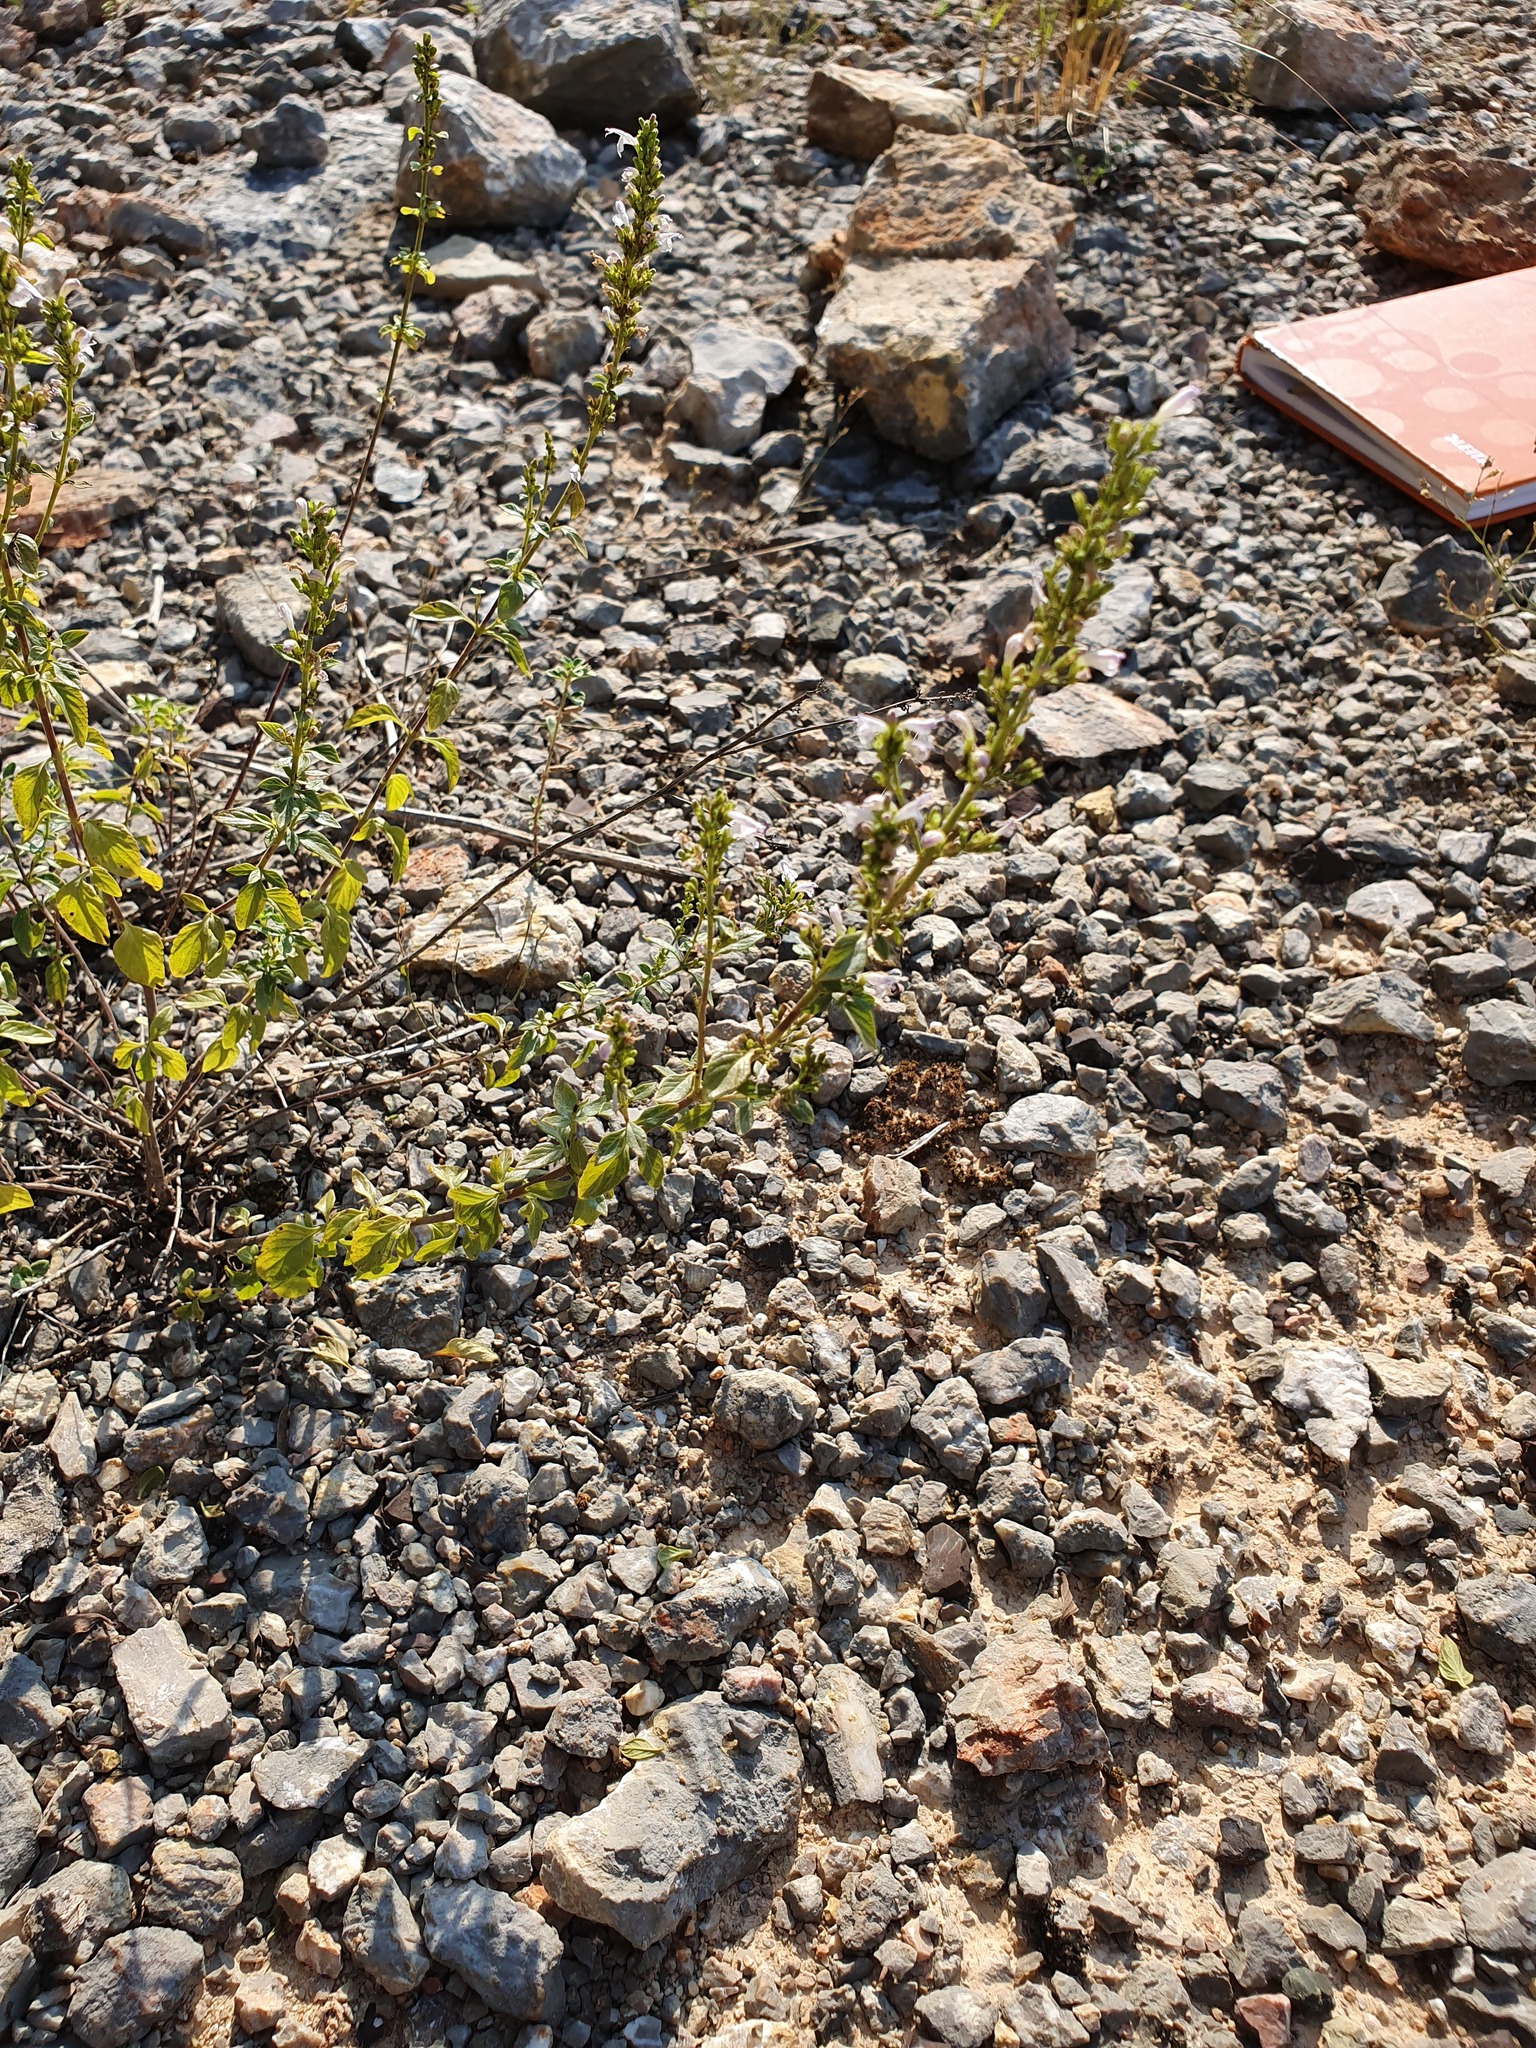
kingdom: Plantae
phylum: Tracheophyta
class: Magnoliopsida
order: Lamiales
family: Lamiaceae
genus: Clinopodium
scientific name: Clinopodium album
